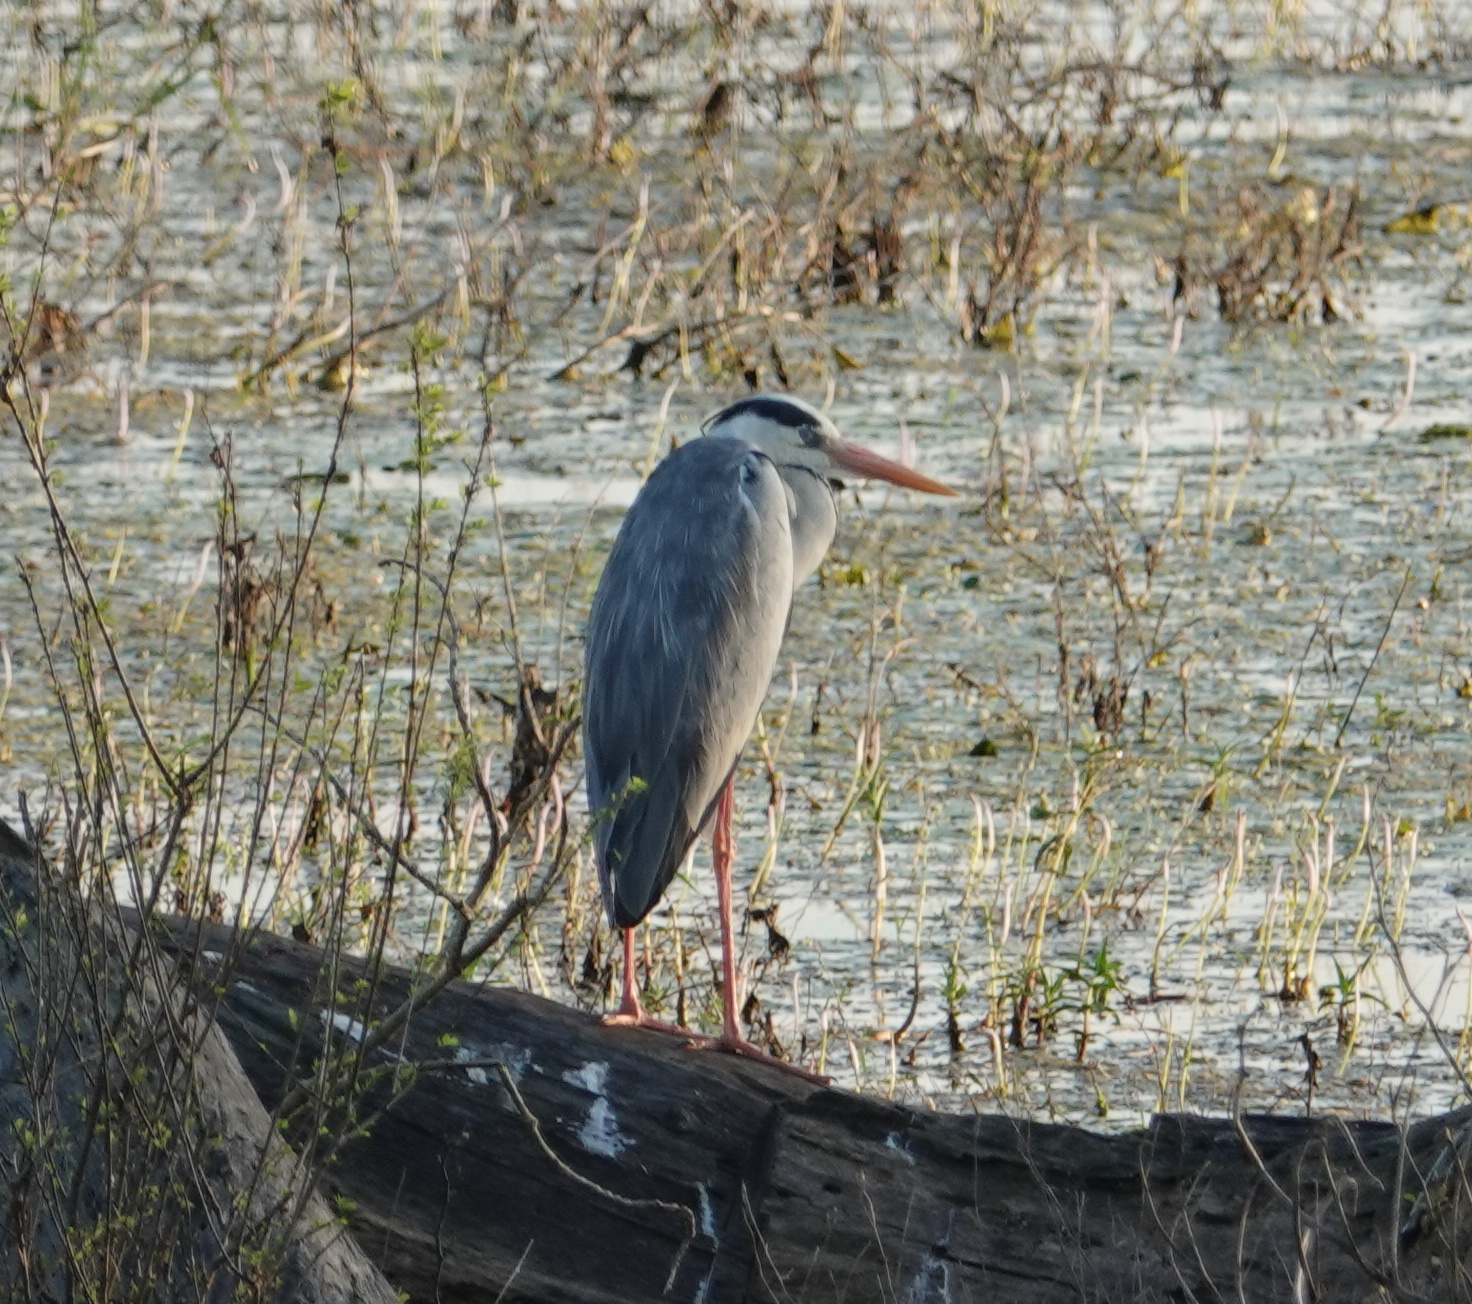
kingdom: Animalia
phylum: Chordata
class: Aves
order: Pelecaniformes
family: Ardeidae
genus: Ardea
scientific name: Ardea cinerea
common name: Grey heron
